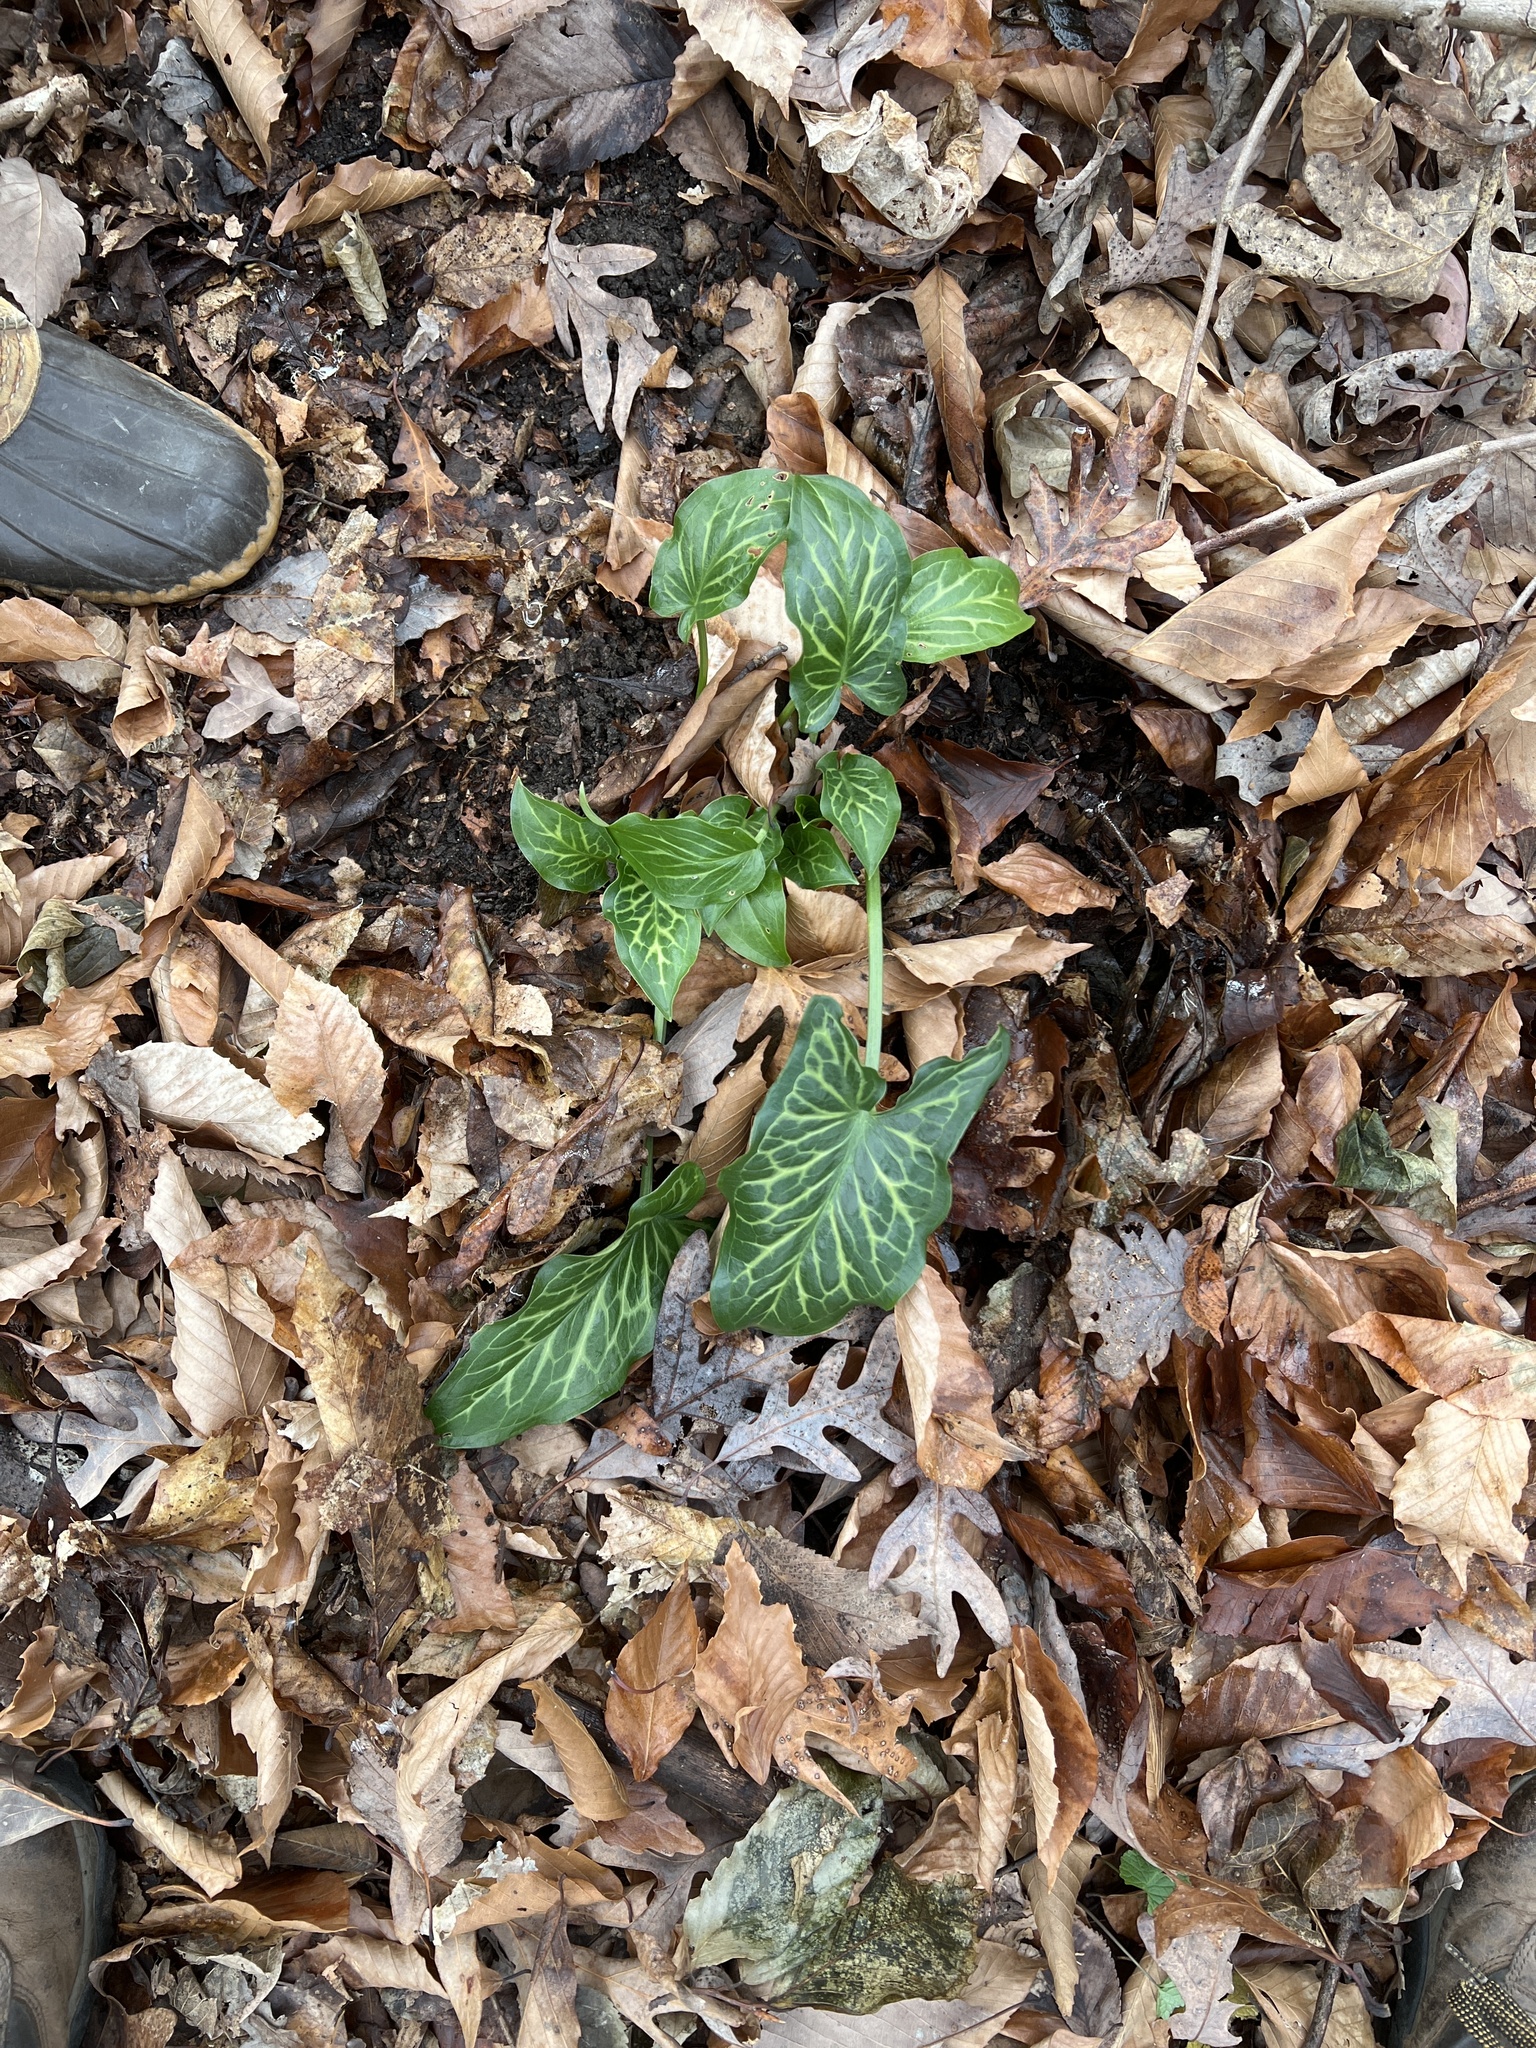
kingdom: Plantae
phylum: Tracheophyta
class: Liliopsida
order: Alismatales
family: Araceae
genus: Arum
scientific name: Arum italicum
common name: Italian lords-and-ladies
